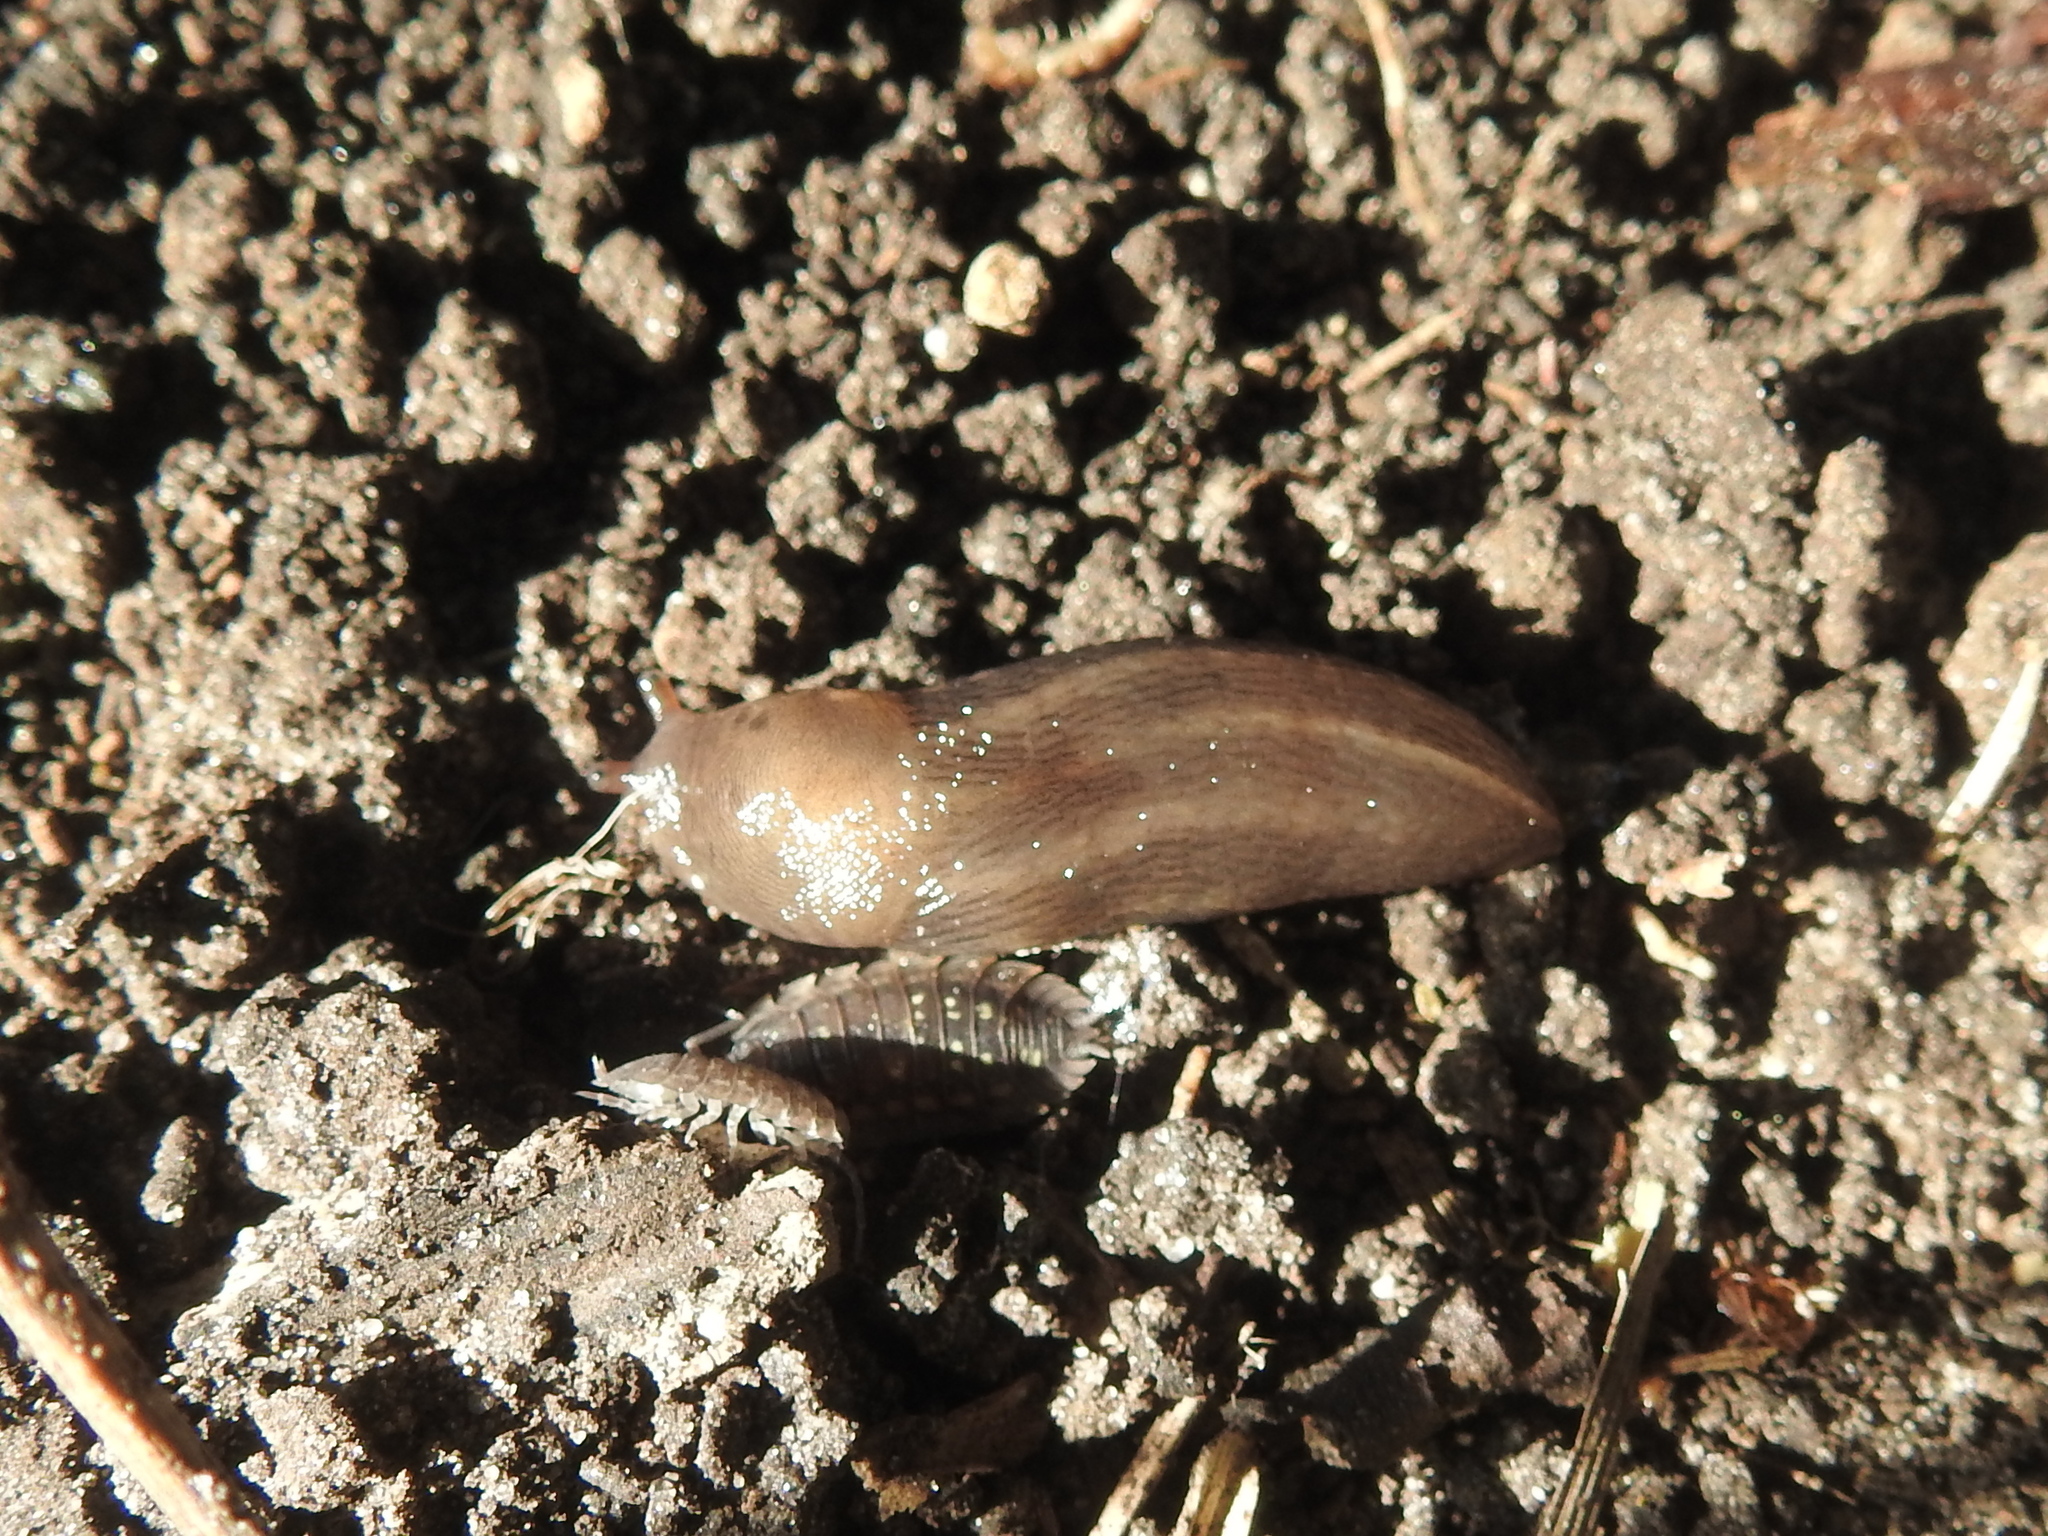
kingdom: Animalia
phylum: Mollusca
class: Gastropoda
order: Stylommatophora
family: Limacidae
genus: Limax
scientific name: Limax maximus
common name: Great grey slug
